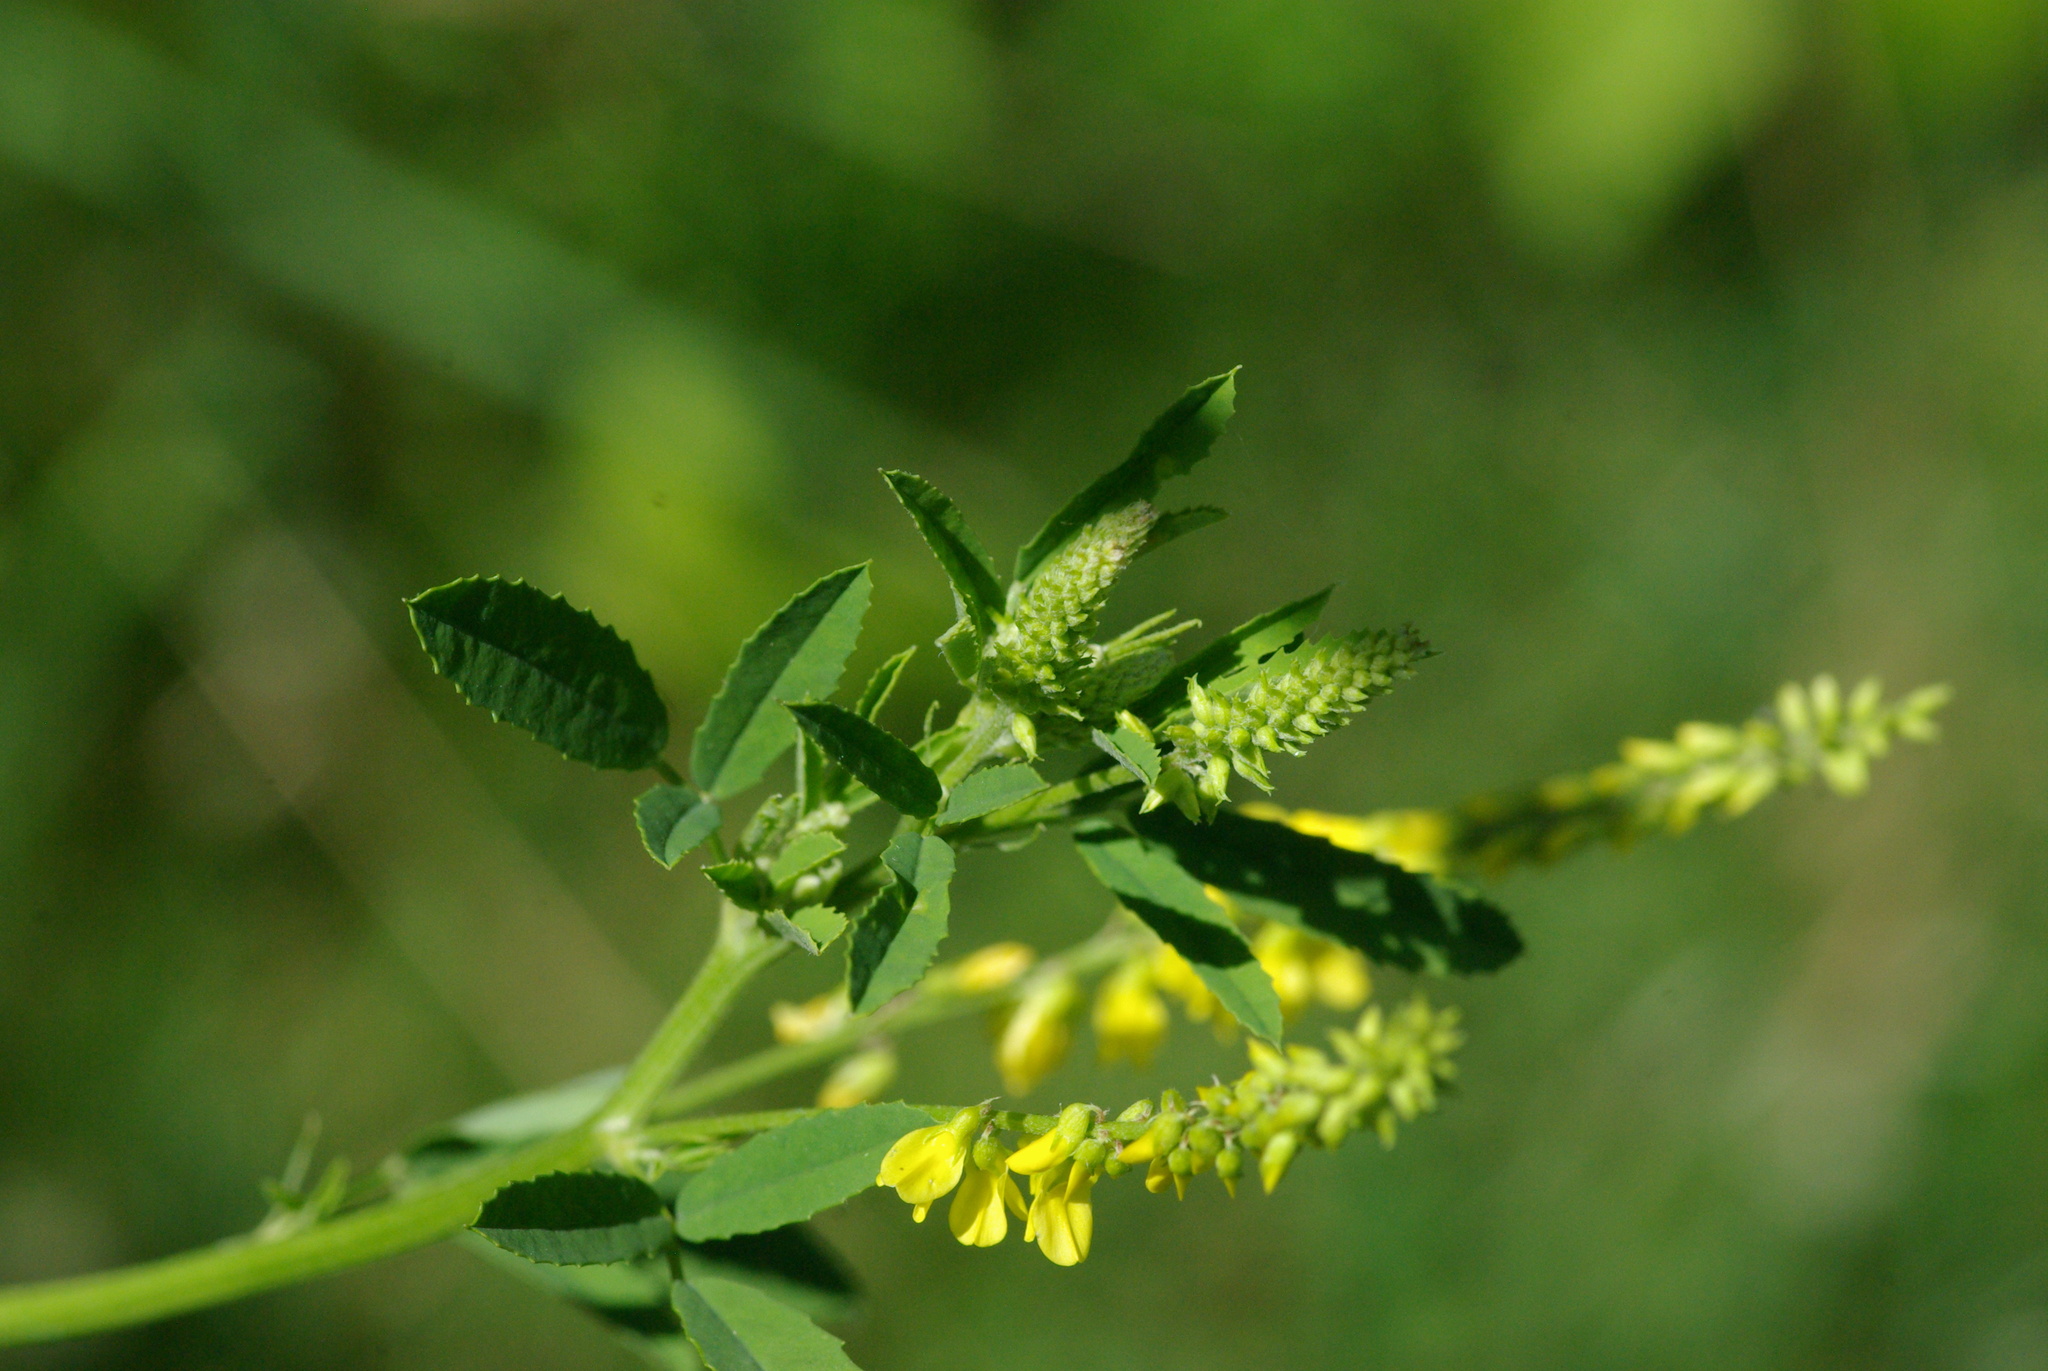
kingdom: Plantae
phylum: Tracheophyta
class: Magnoliopsida
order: Fabales
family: Fabaceae
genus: Melilotus
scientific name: Melilotus officinalis
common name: Sweetclover
